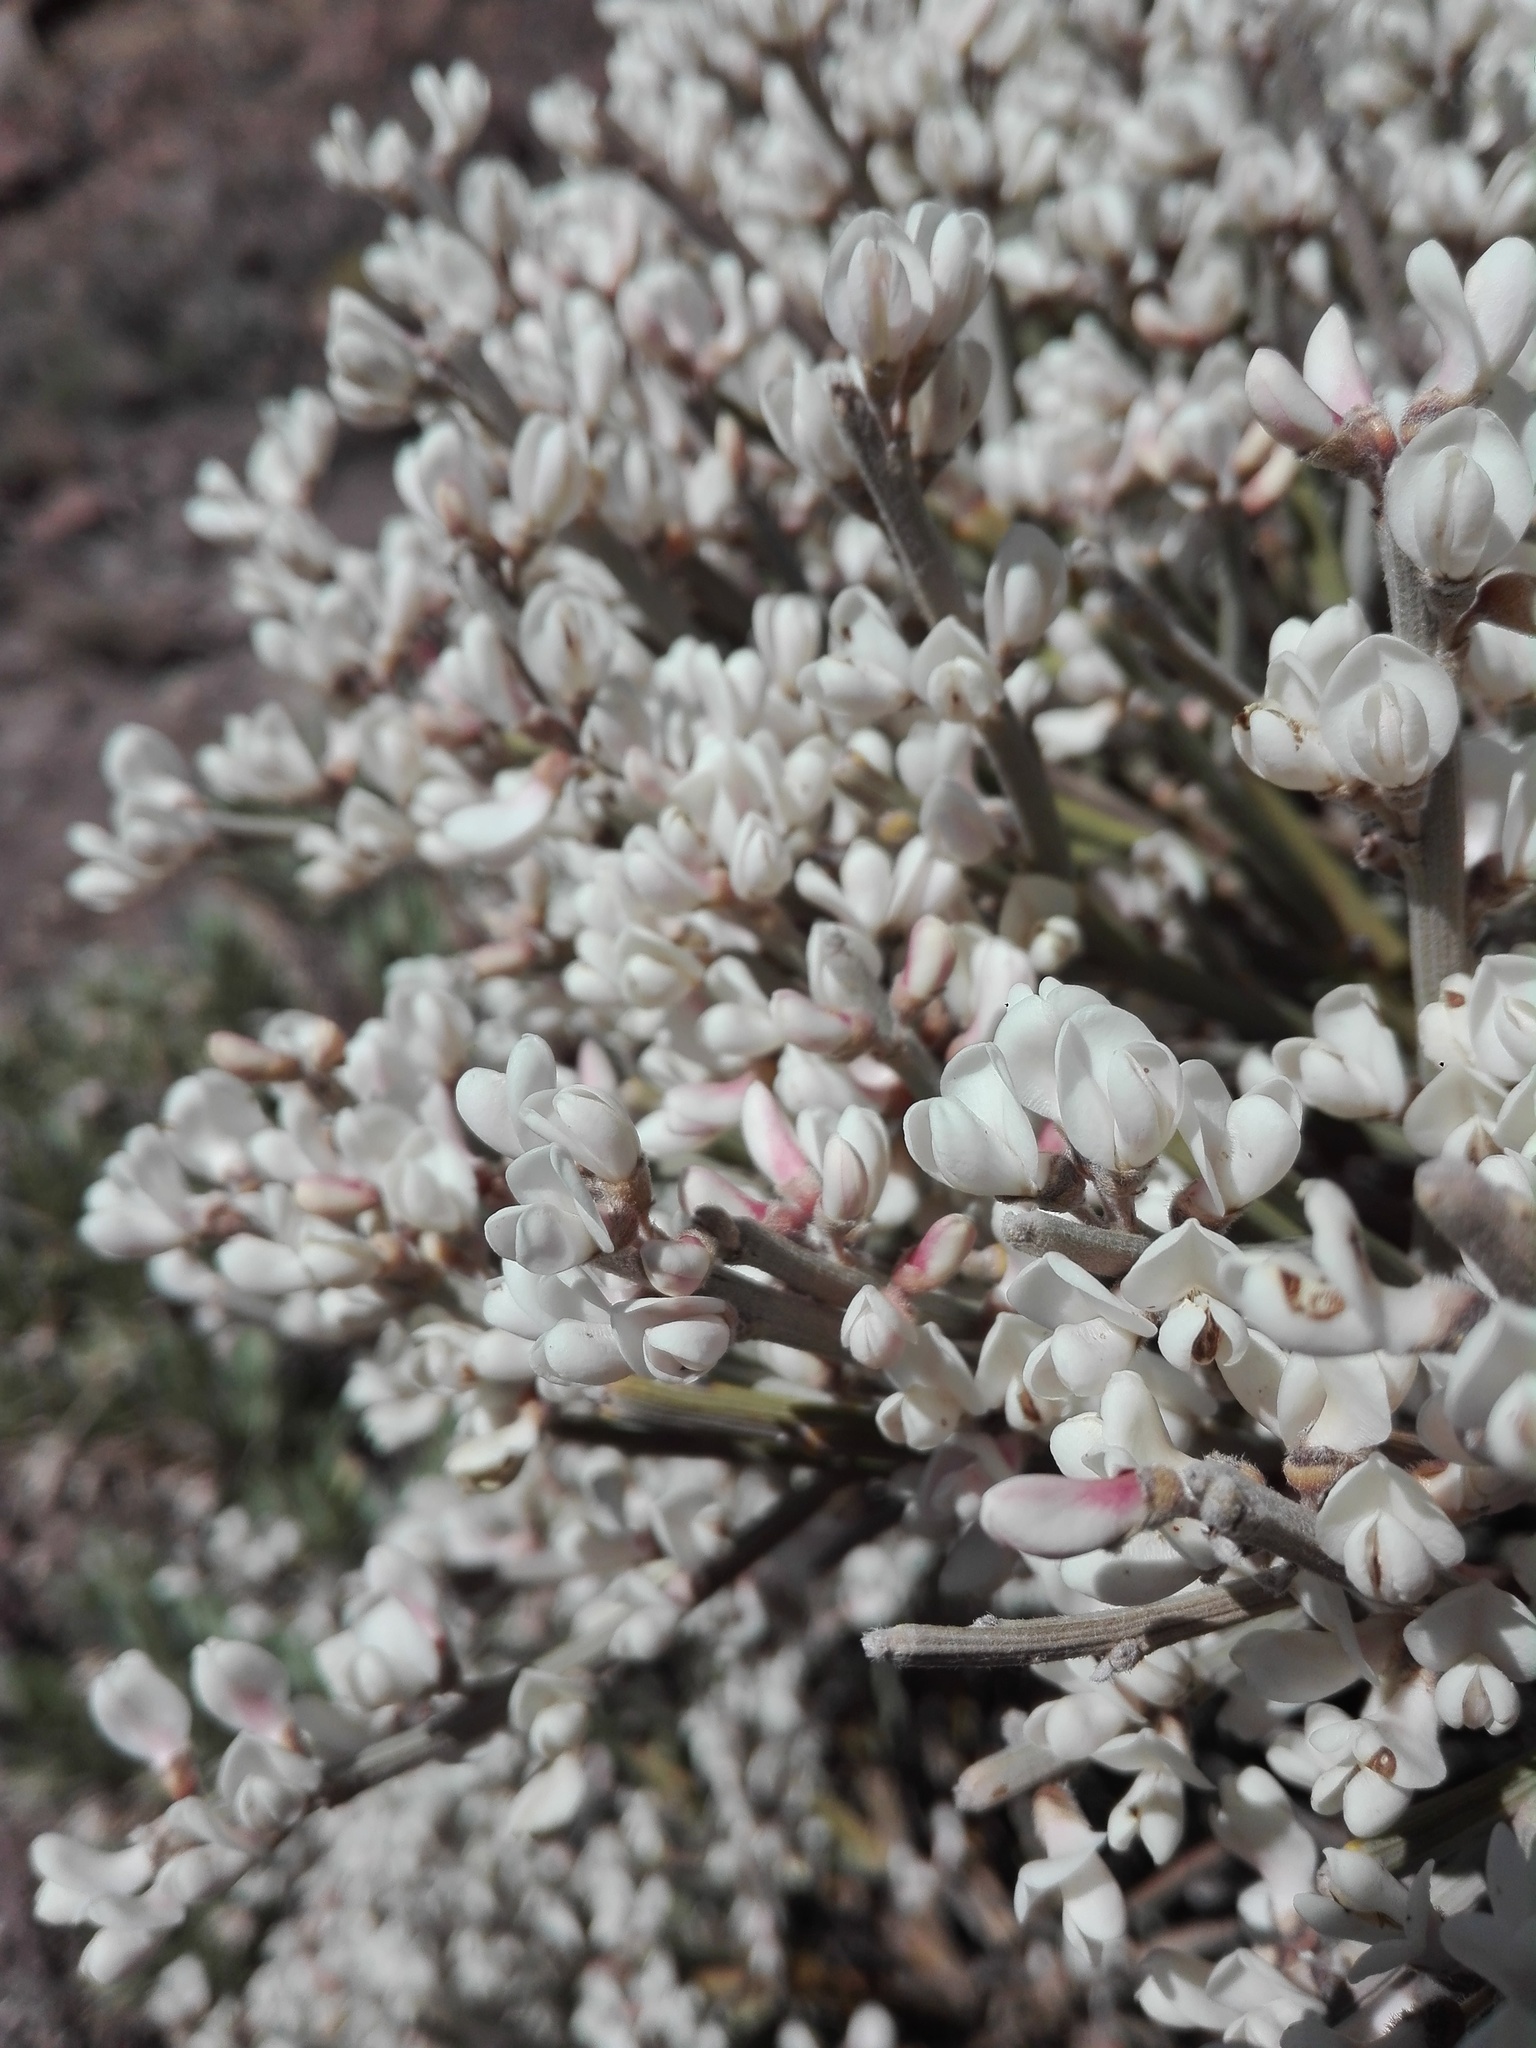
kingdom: Plantae
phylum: Tracheophyta
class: Magnoliopsida
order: Fabales
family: Fabaceae
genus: Cytisus
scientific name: Cytisus supranubius
